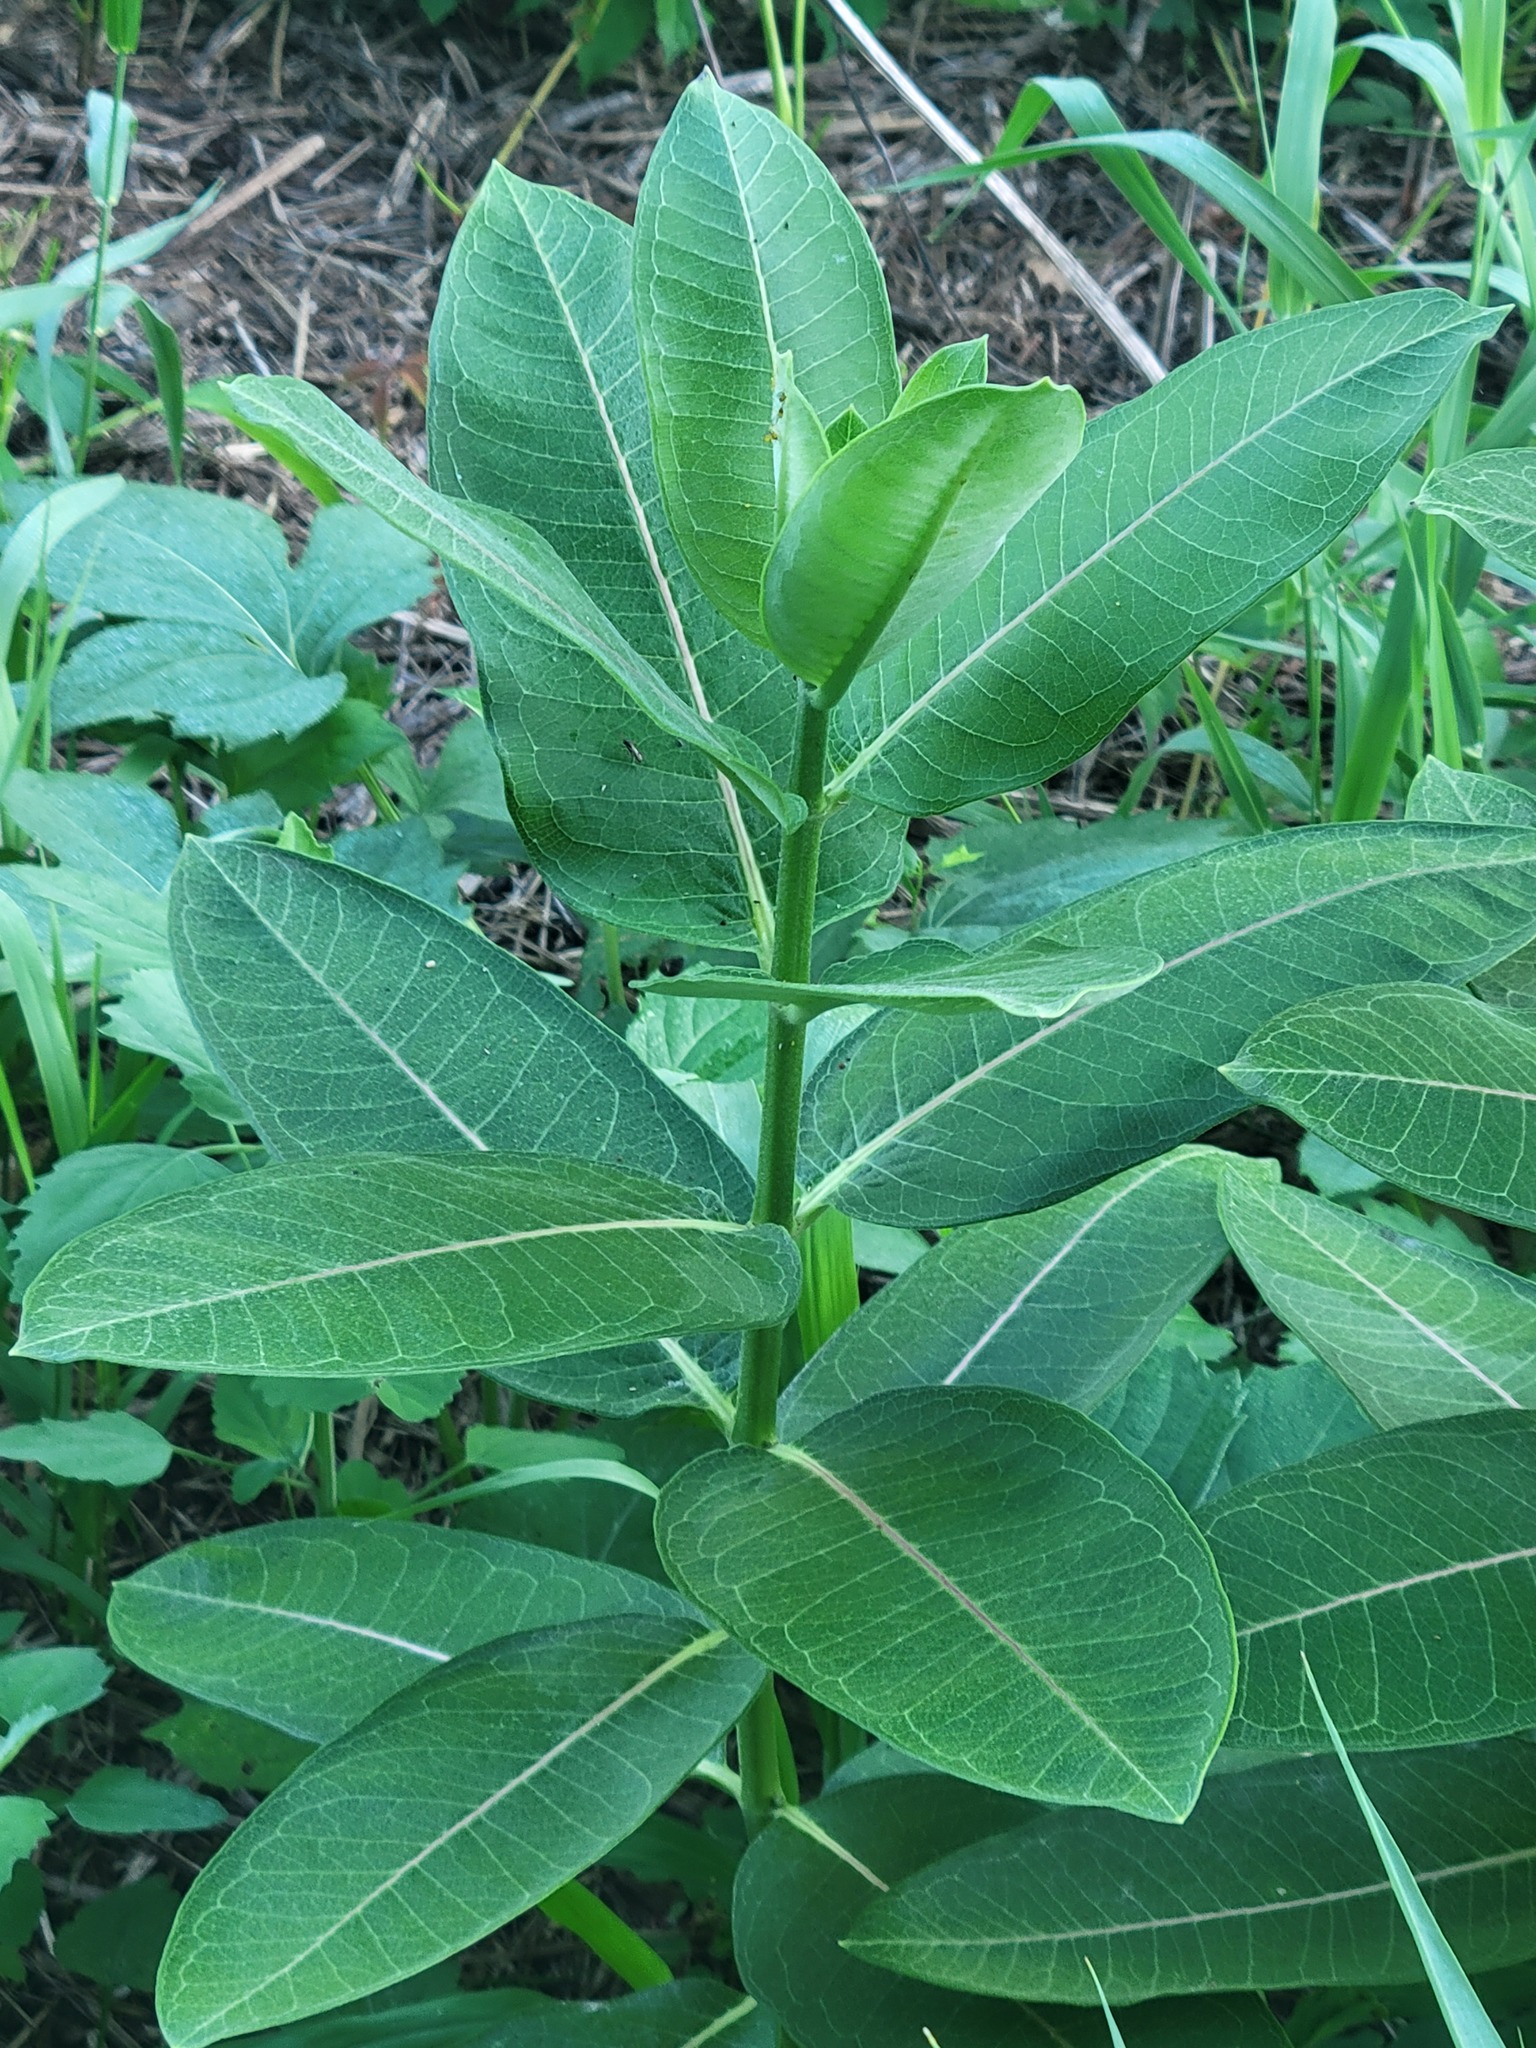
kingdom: Plantae
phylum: Tracheophyta
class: Magnoliopsida
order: Gentianales
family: Apocynaceae
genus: Asclepias
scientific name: Asclepias syriaca
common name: Common milkweed
